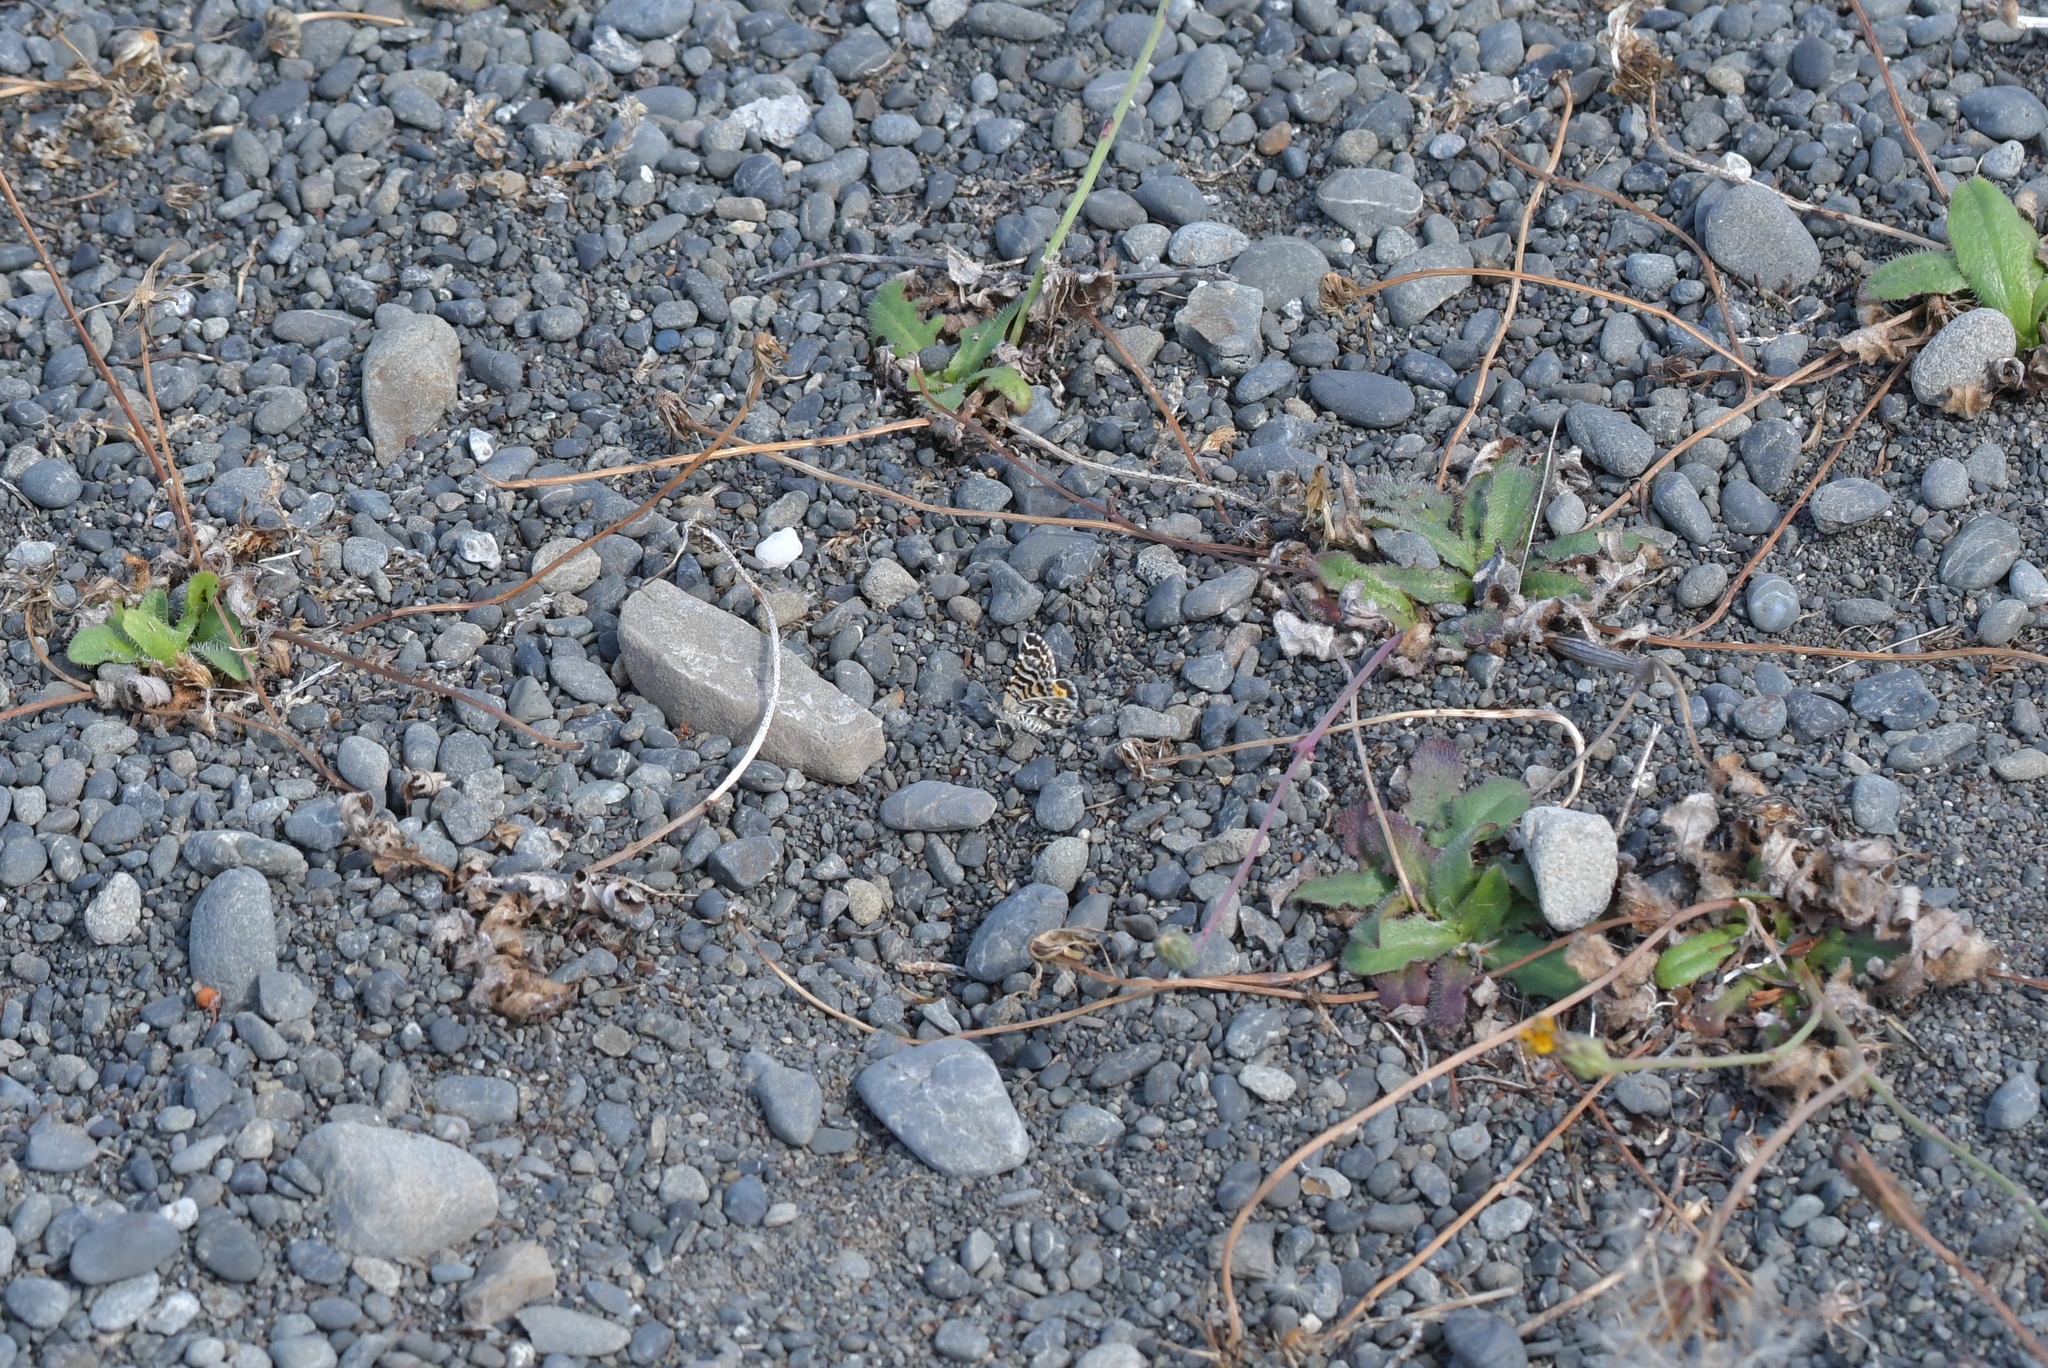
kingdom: Animalia
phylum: Arthropoda
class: Insecta
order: Lepidoptera
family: Geometridae
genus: Notoreas
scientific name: Notoreas perornata
